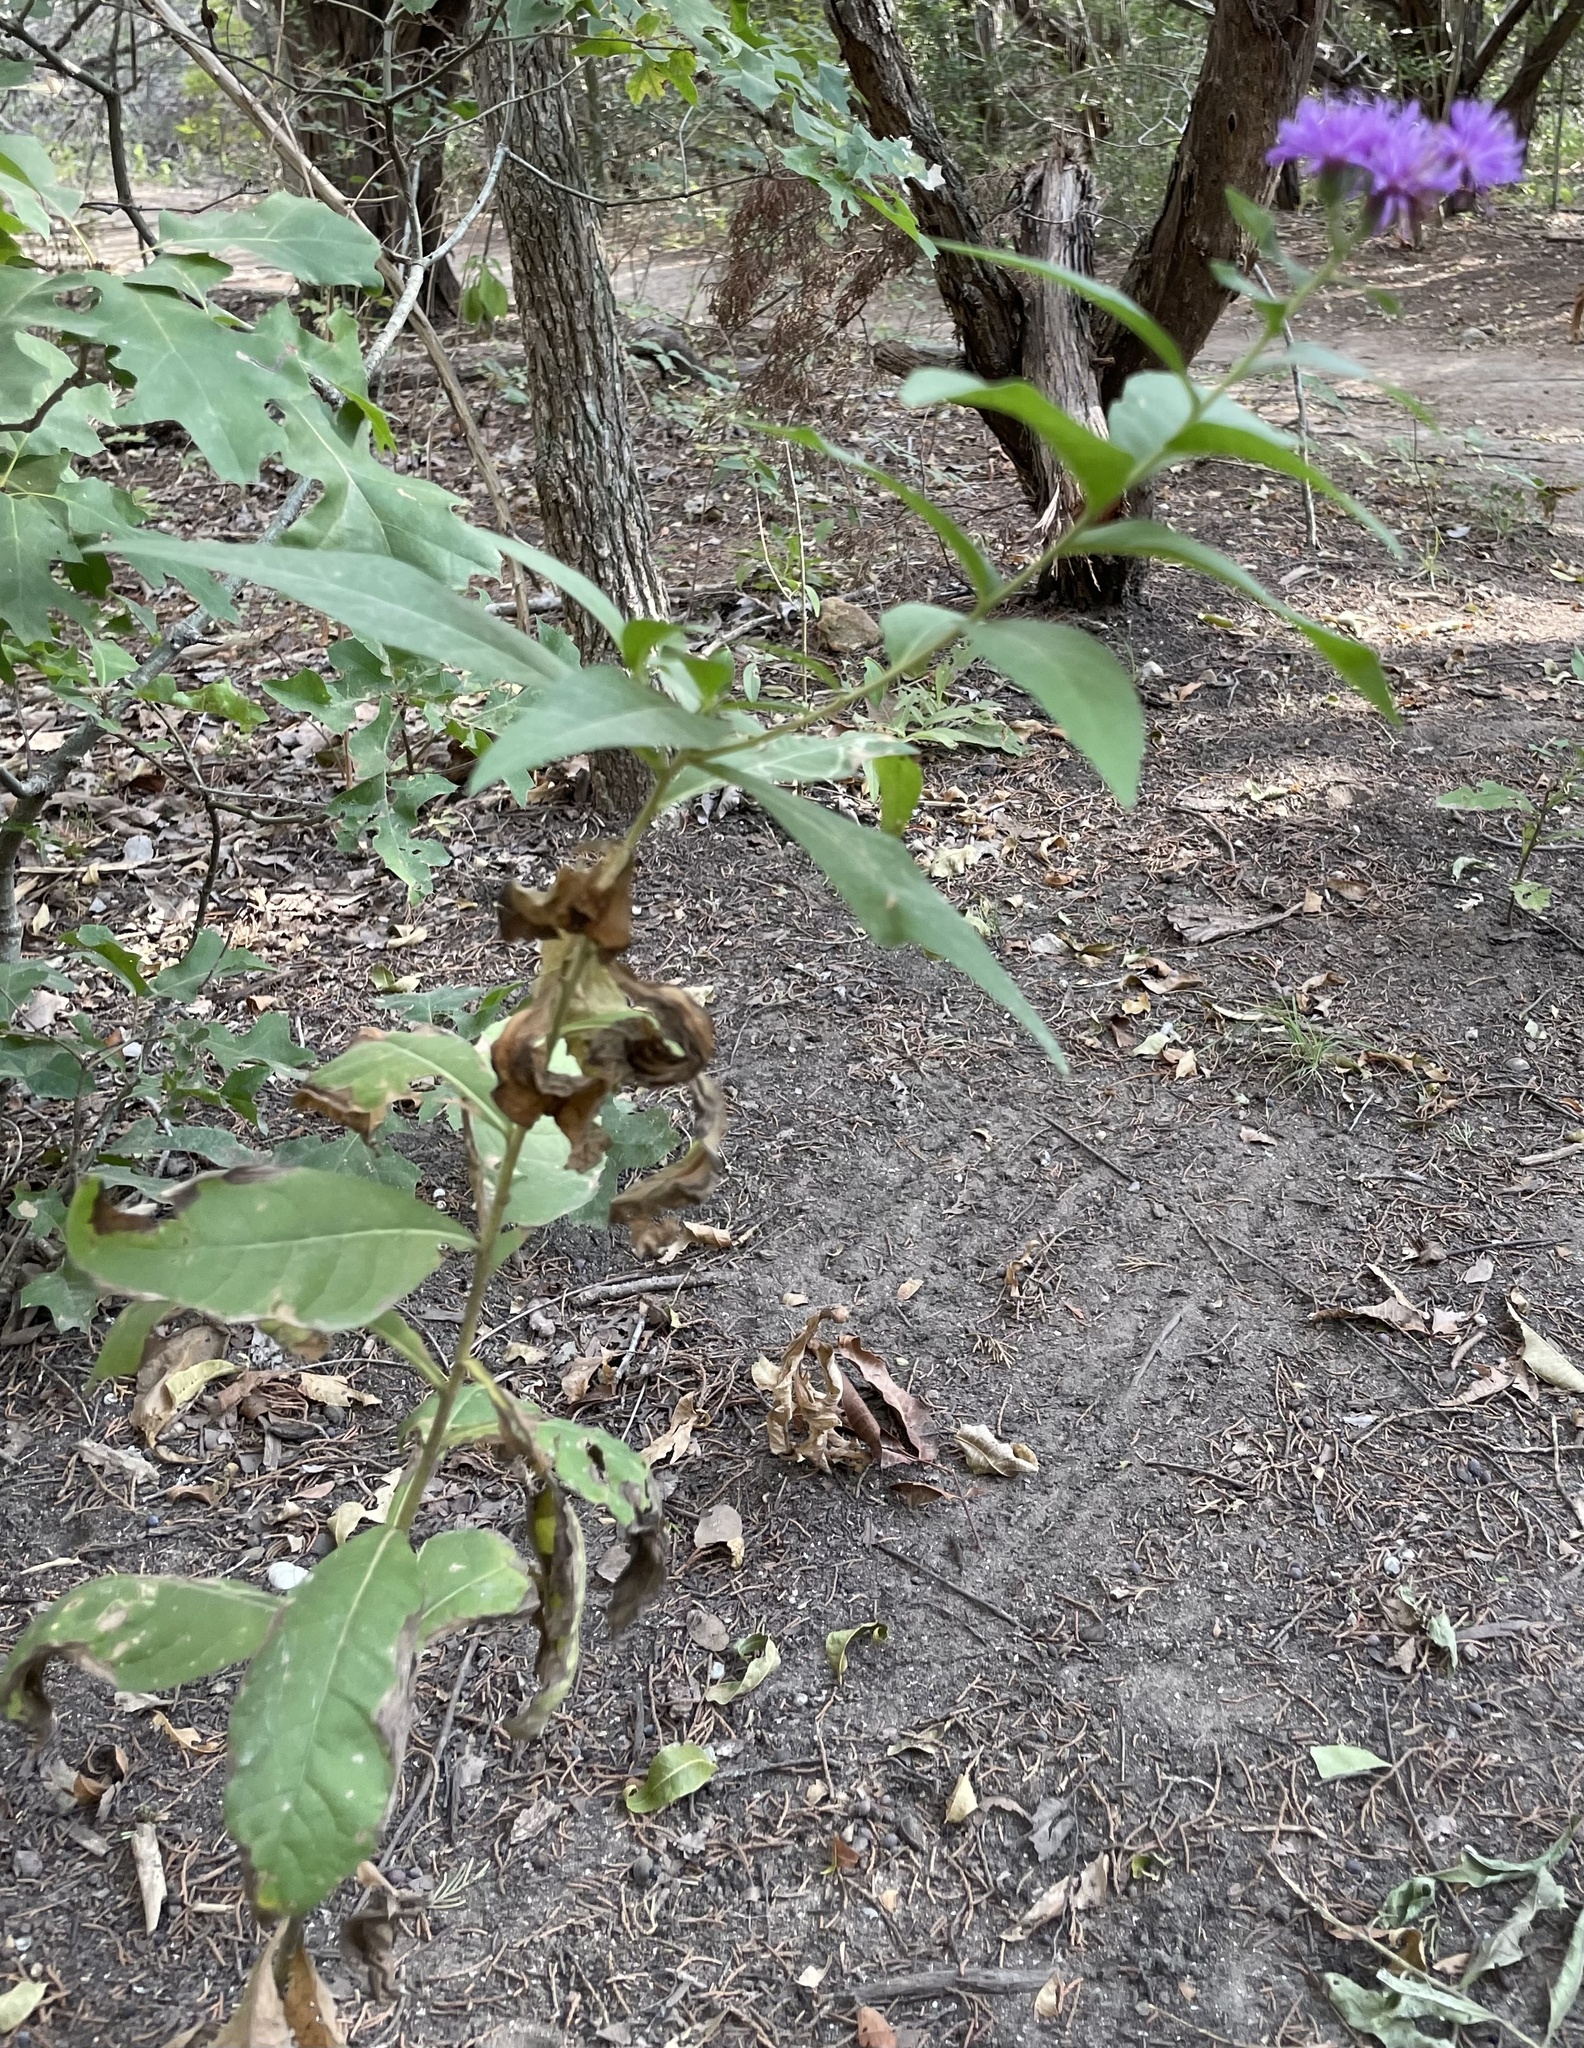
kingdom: Plantae
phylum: Tracheophyta
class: Magnoliopsida
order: Asterales
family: Asteraceae
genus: Vernonia
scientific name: Vernonia baldwinii
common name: Western ironweed
